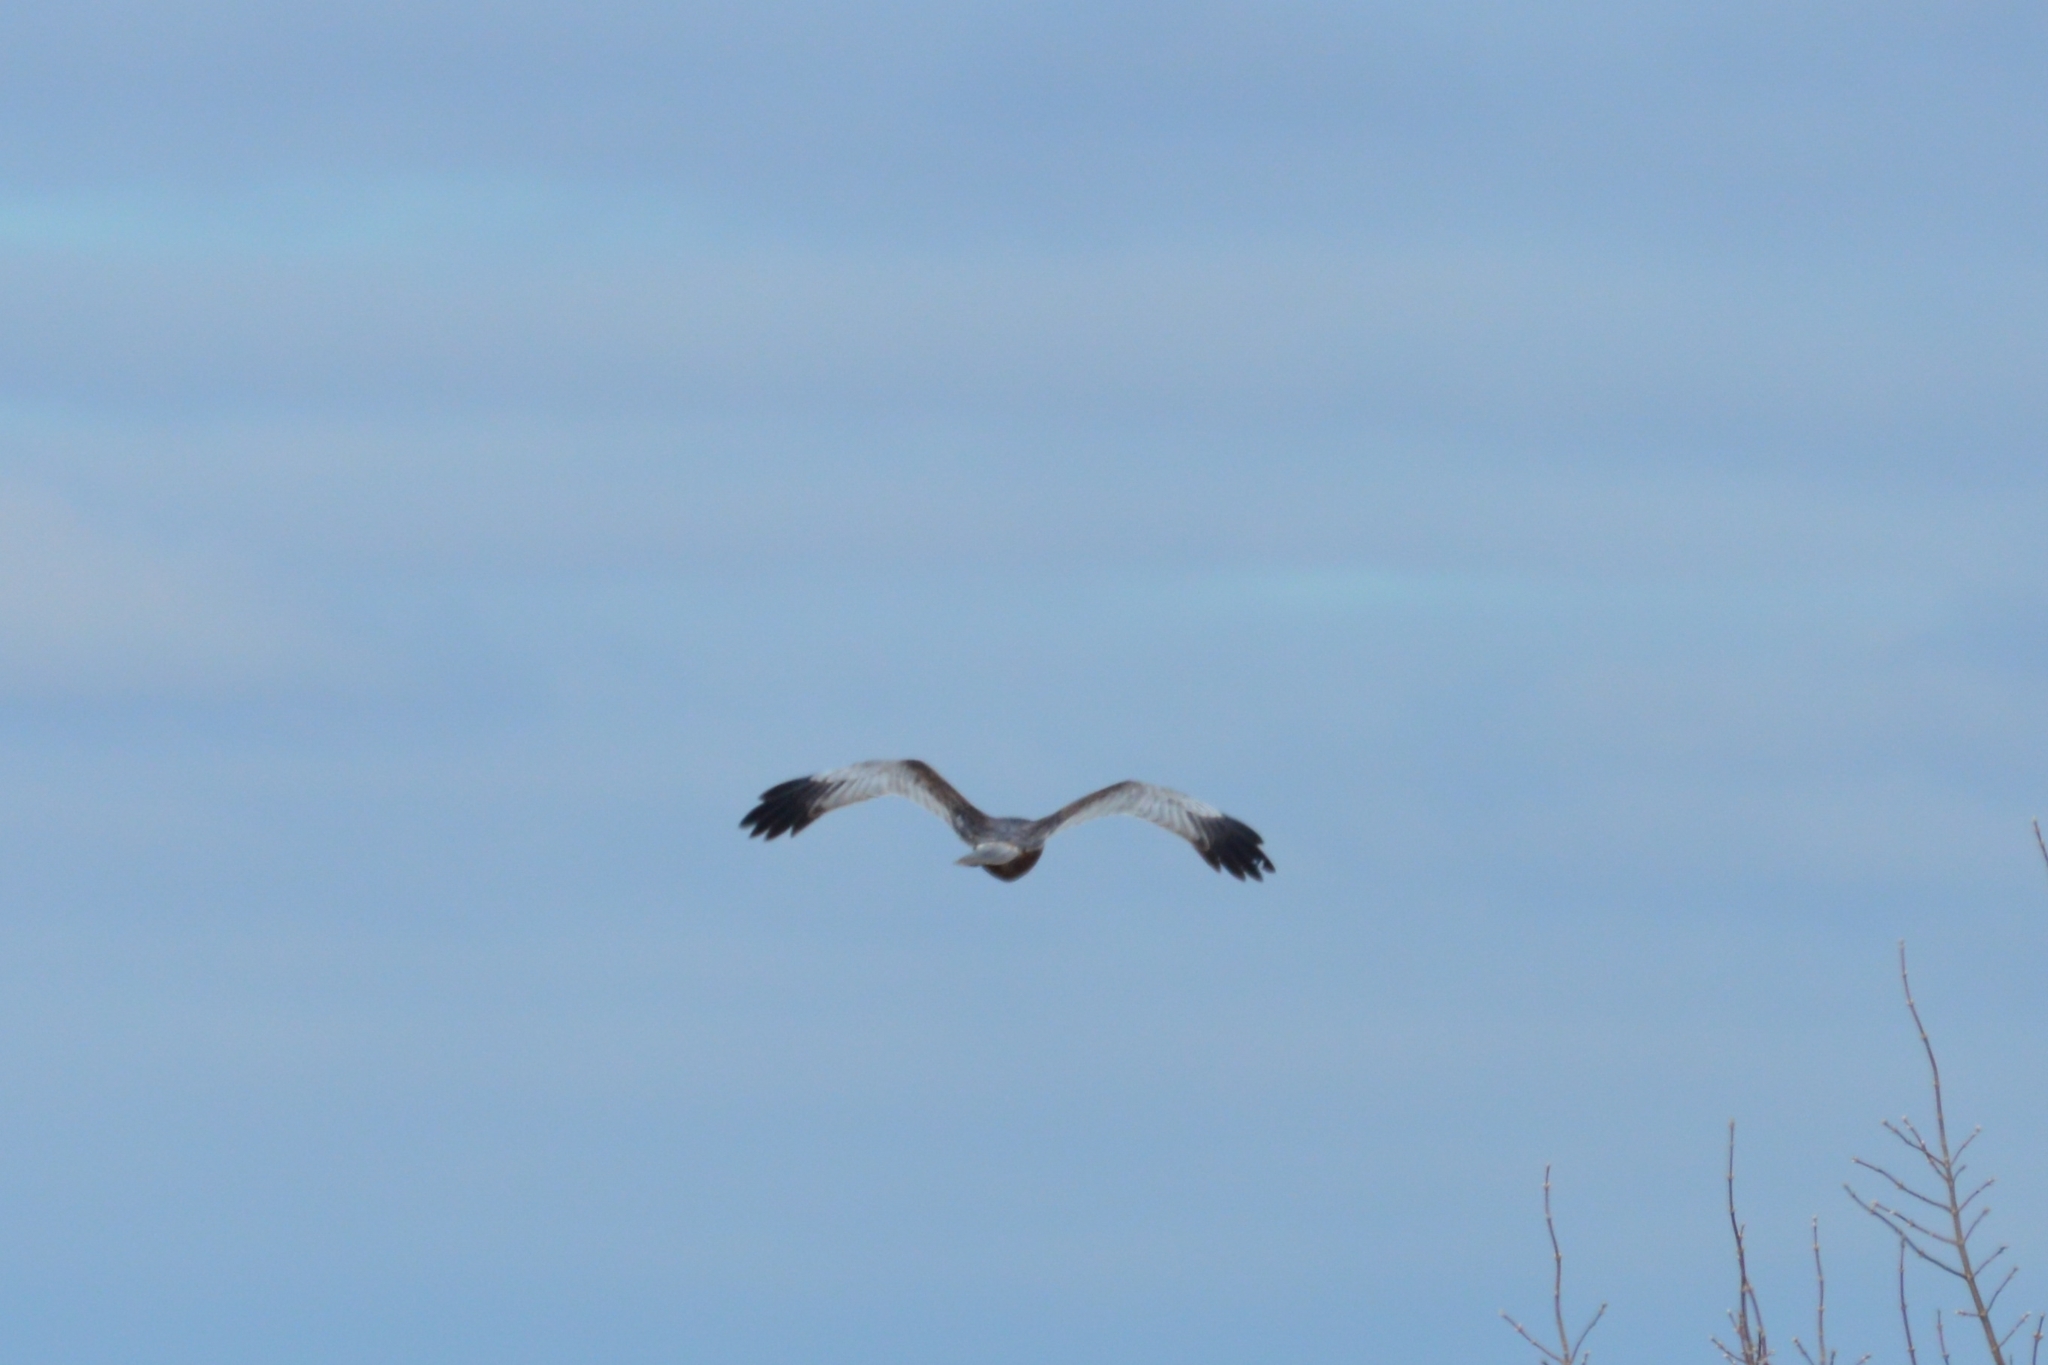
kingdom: Animalia
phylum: Chordata
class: Aves
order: Accipitriformes
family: Accipitridae
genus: Circus
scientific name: Circus aeruginosus
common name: Western marsh harrier
